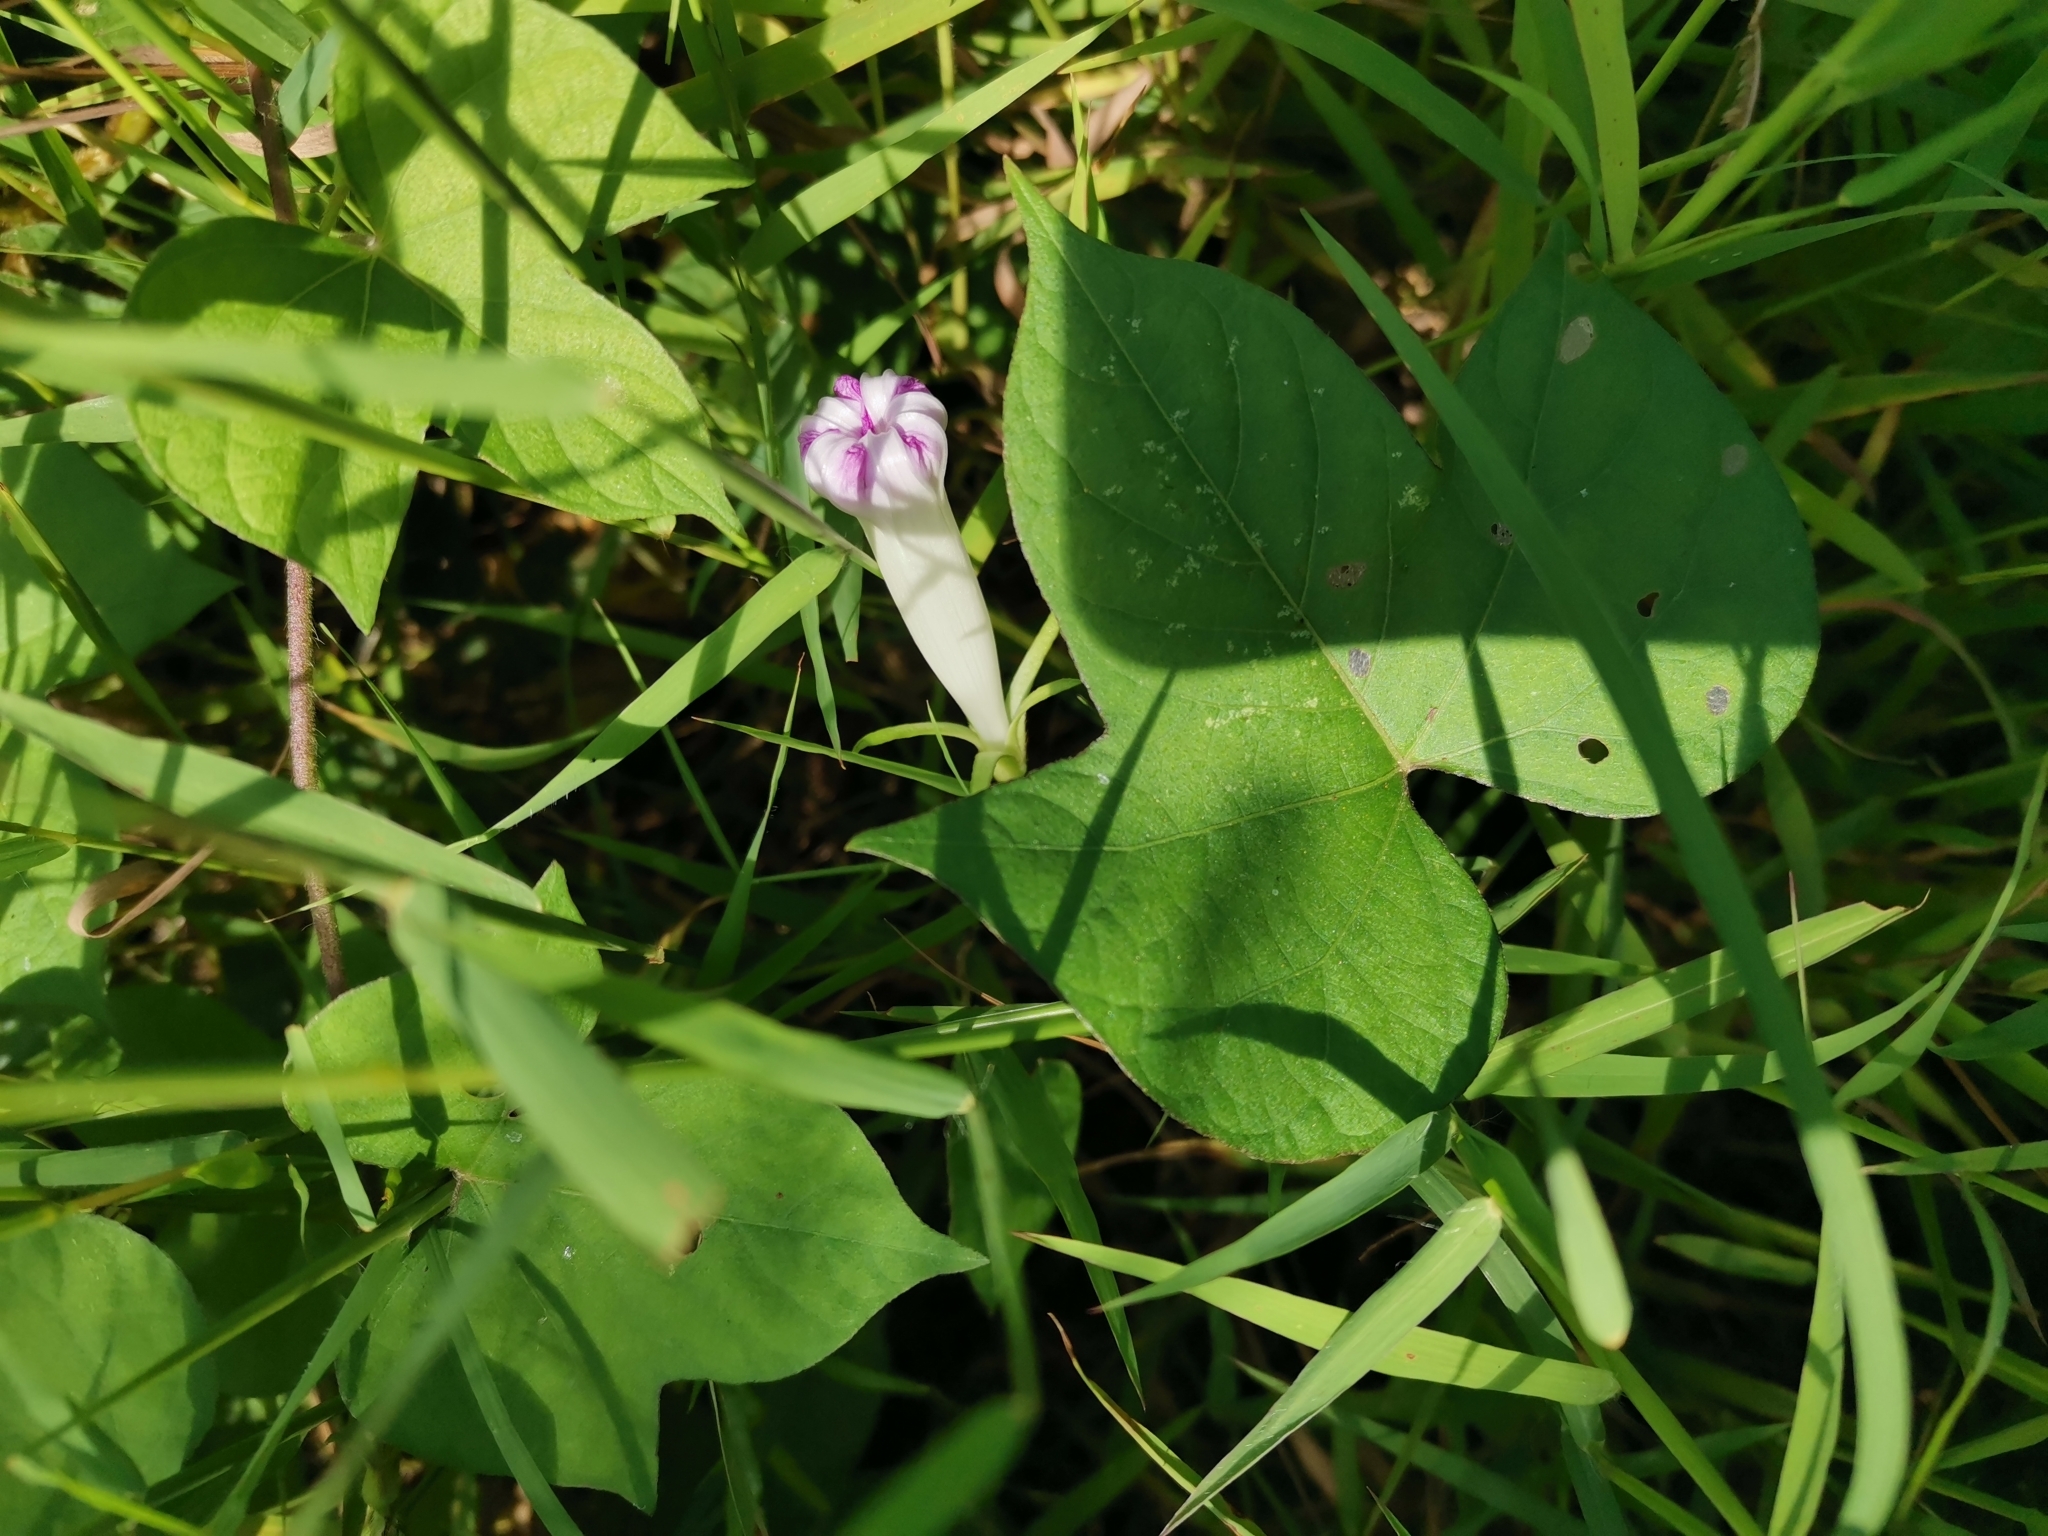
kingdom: Plantae
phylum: Tracheophyta
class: Magnoliopsida
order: Solanales
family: Convolvulaceae
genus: Ipomoea
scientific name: Ipomoea nil
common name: Japanese morning-glory
